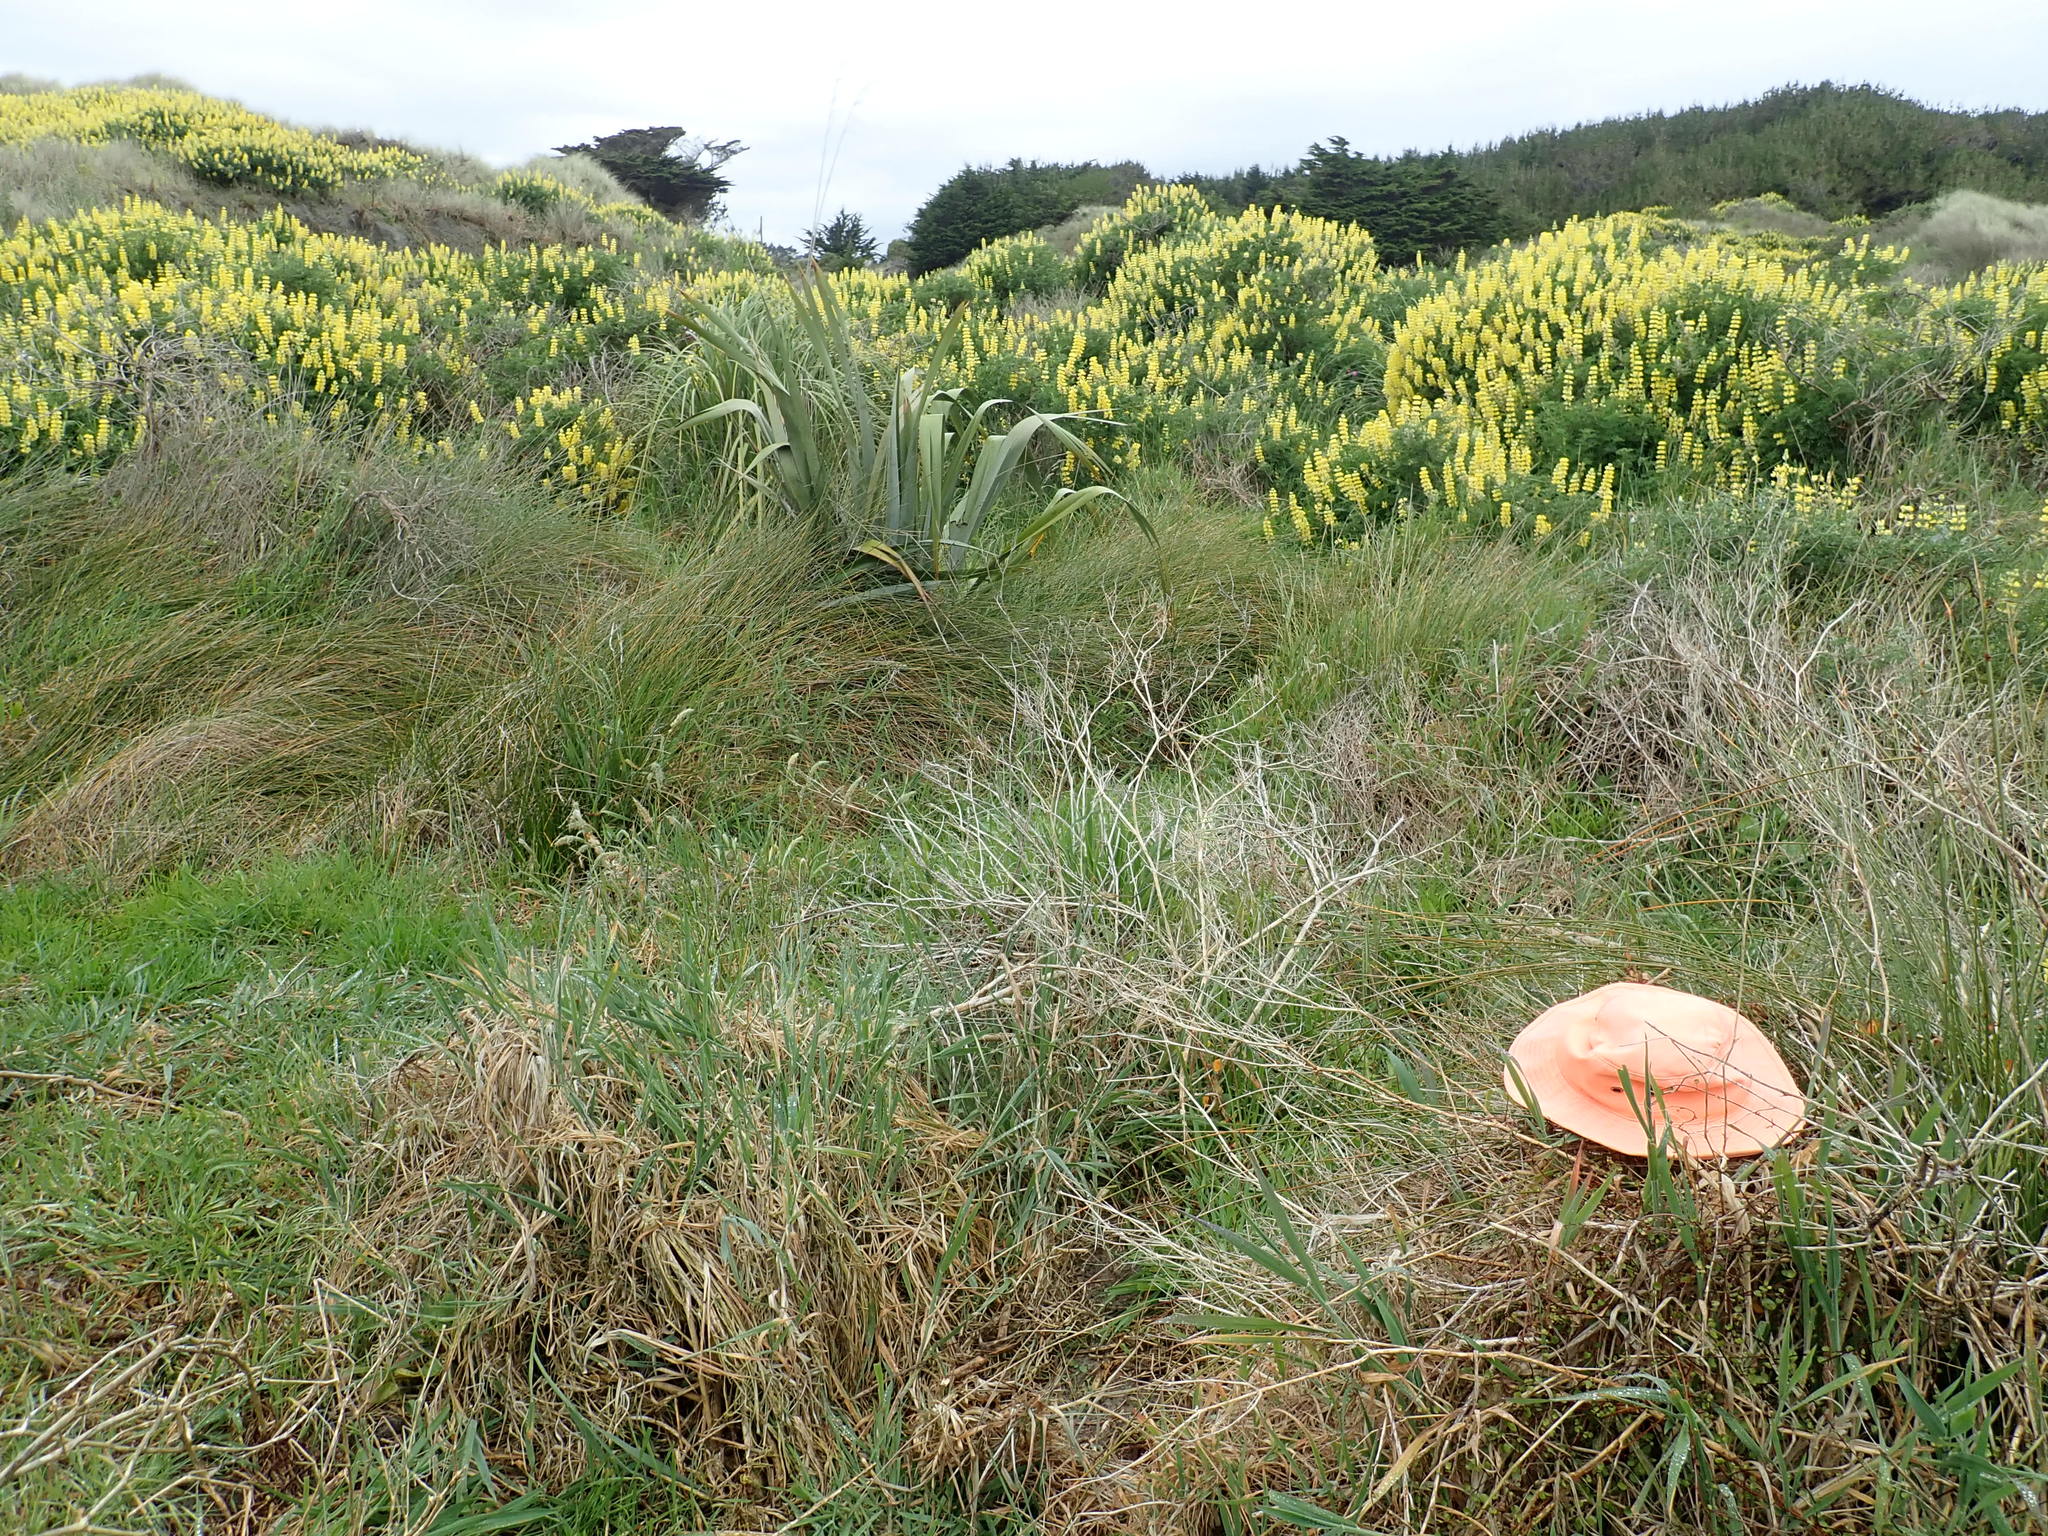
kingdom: Plantae
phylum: Tracheophyta
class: Magnoliopsida
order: Caryophyllales
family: Aizoaceae
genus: Tetragonia
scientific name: Tetragonia implexicoma
